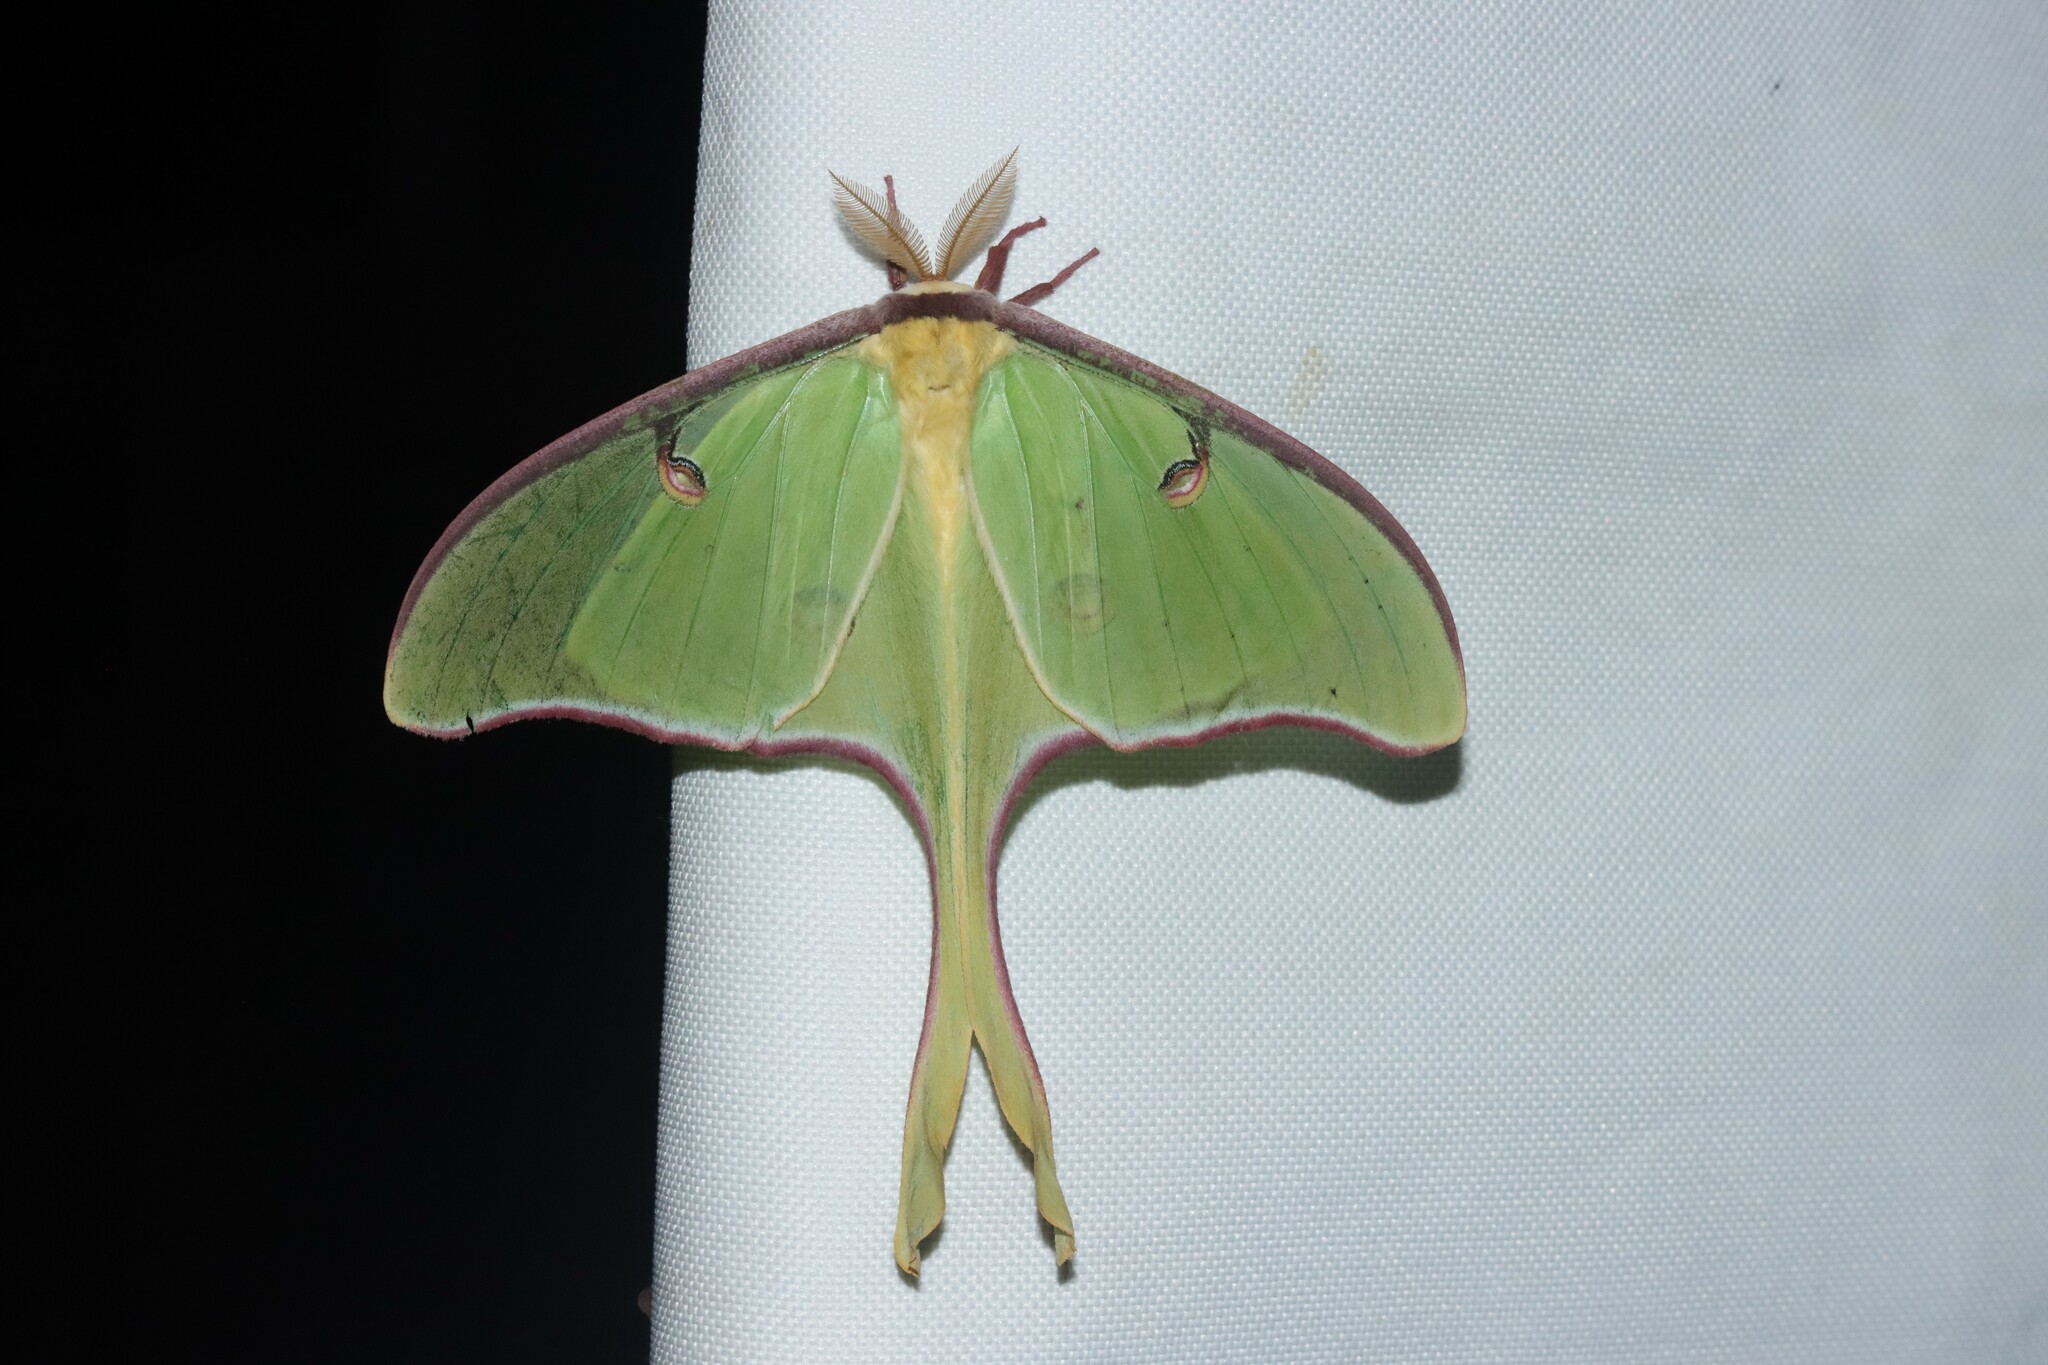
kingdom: Animalia
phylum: Arthropoda
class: Insecta
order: Lepidoptera
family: Saturniidae
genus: Actias
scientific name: Actias luna
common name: Luna moth
